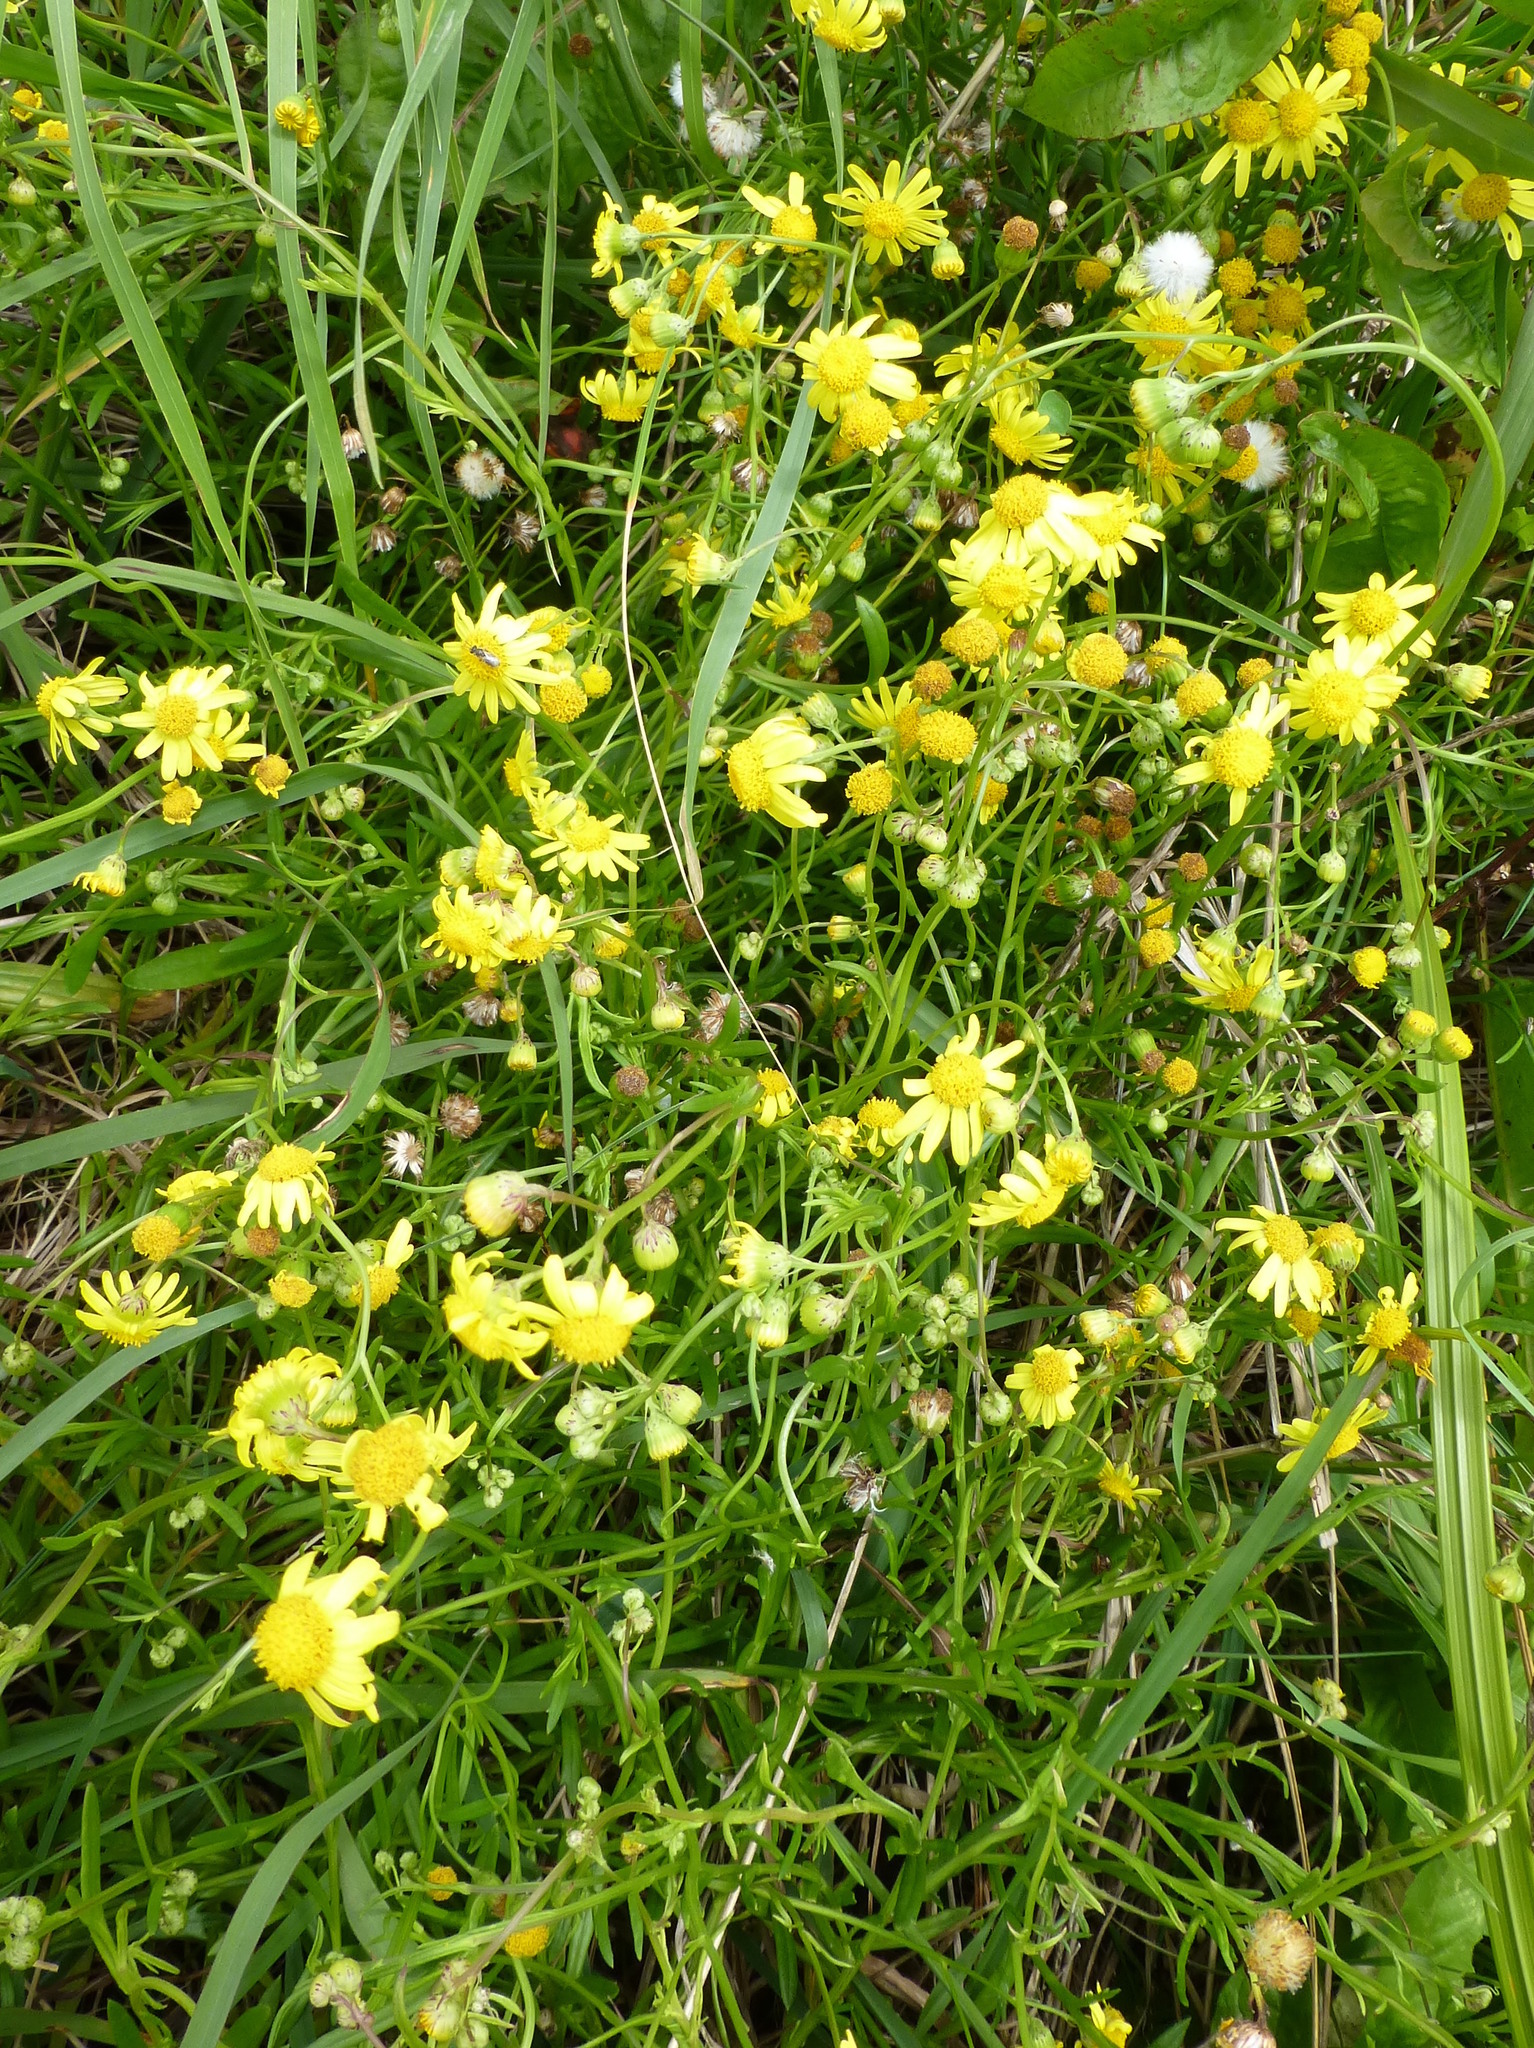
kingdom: Plantae
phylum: Tracheophyta
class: Magnoliopsida
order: Asterales
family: Asteraceae
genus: Senecio
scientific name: Senecio skirrhodon
